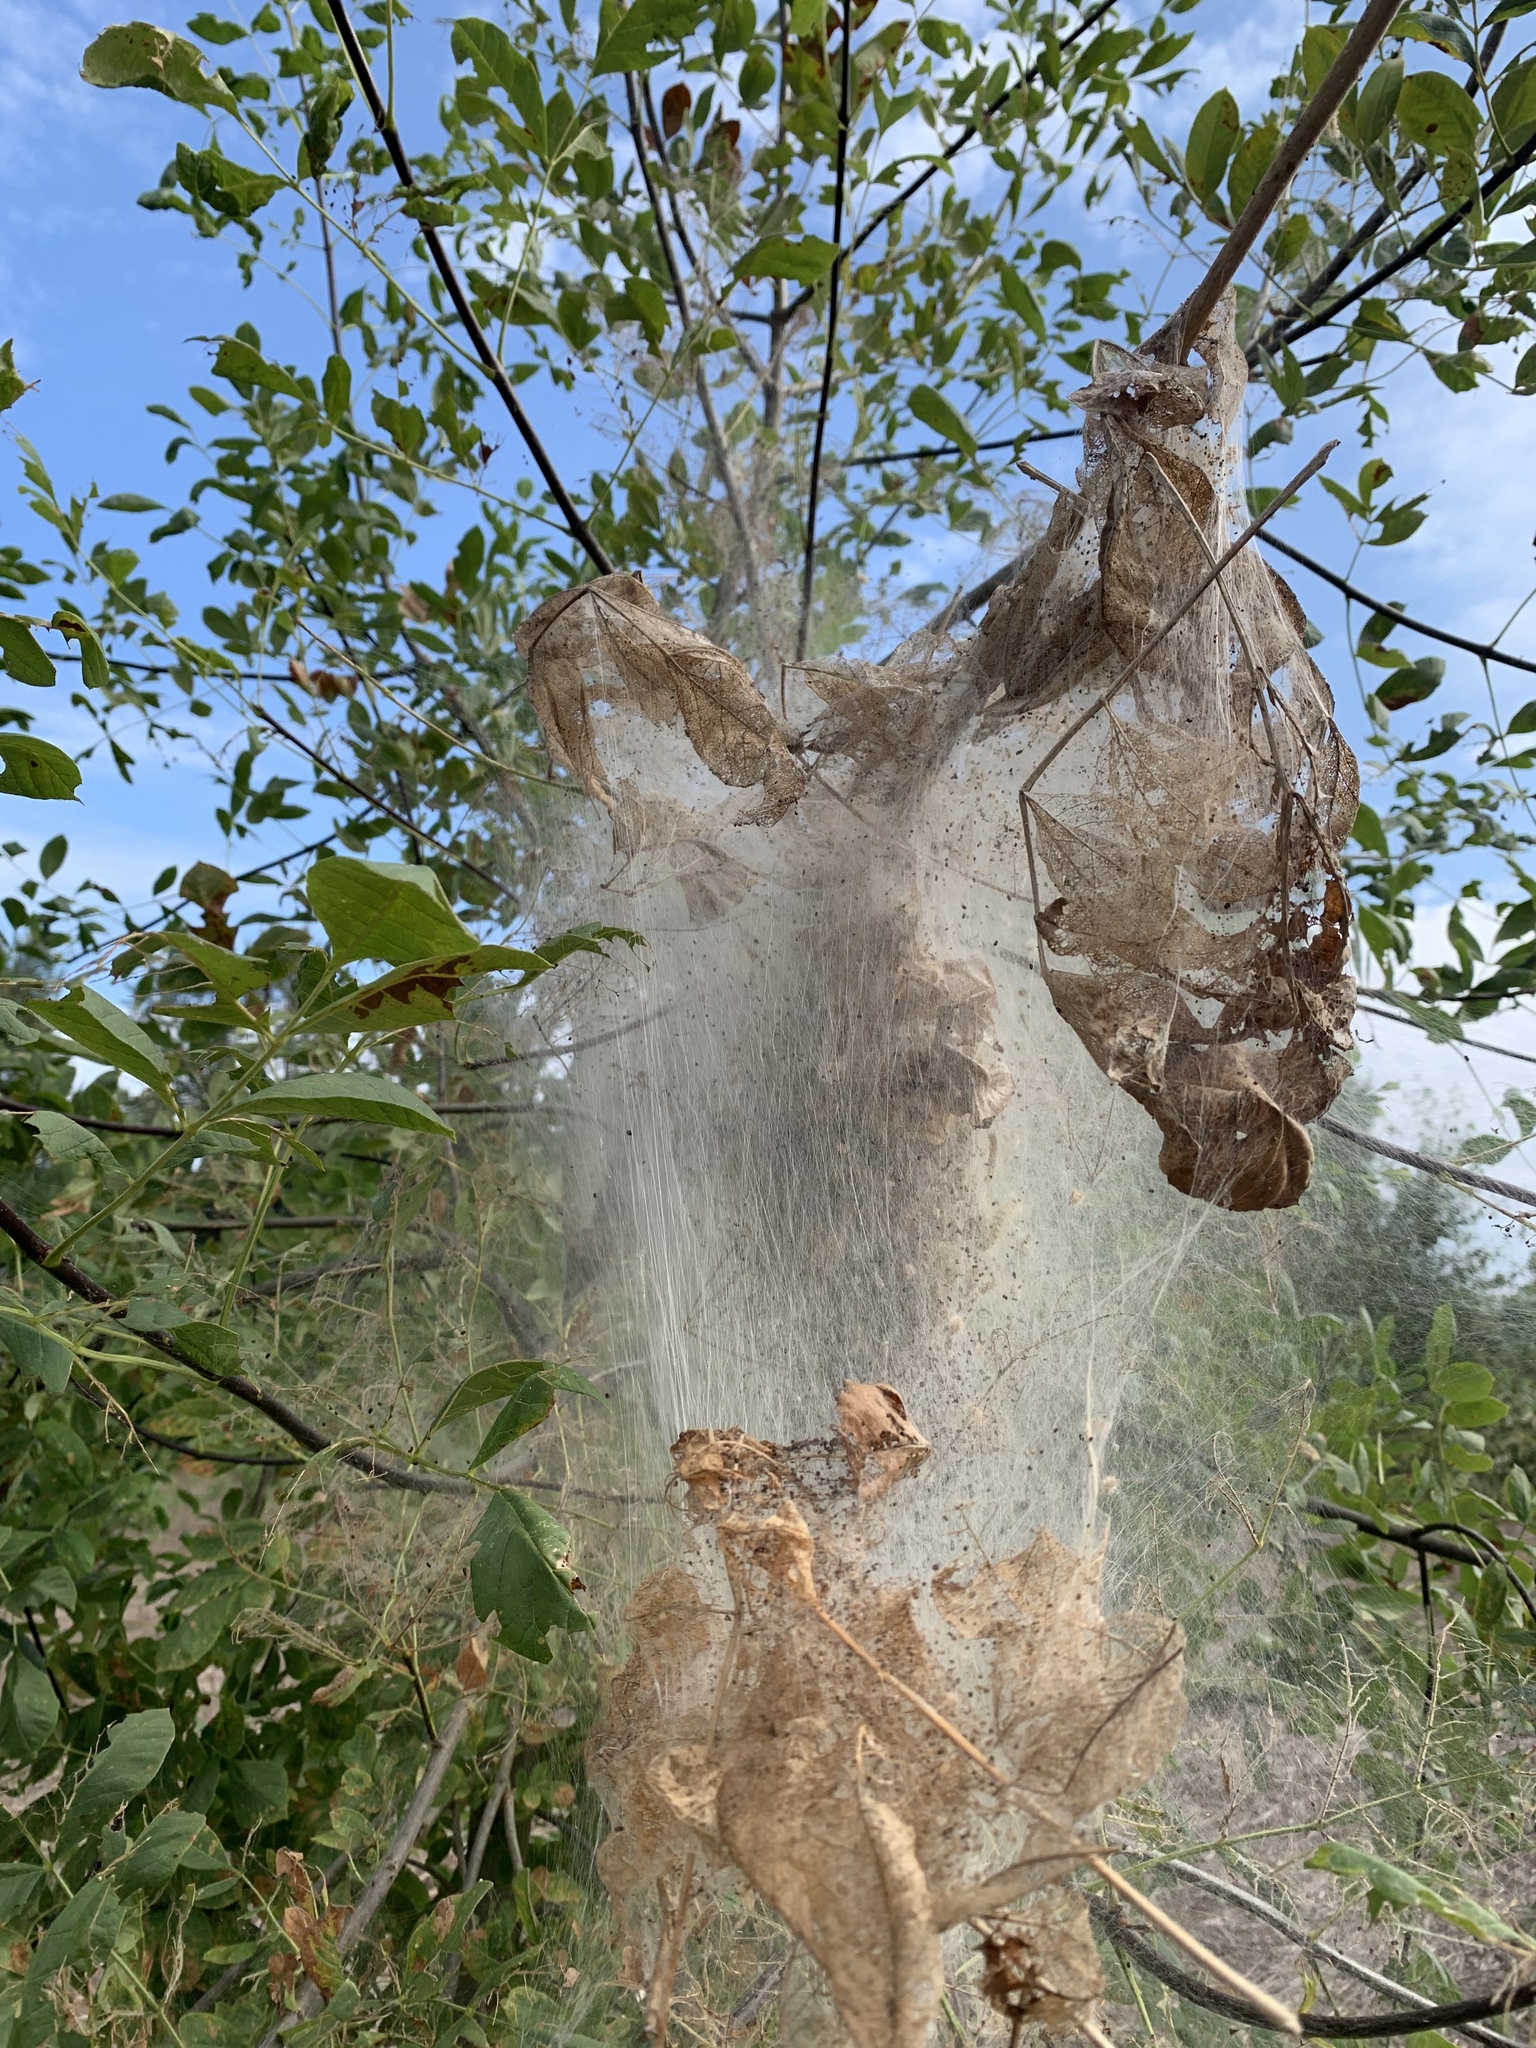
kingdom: Animalia
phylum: Arthropoda
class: Insecta
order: Lepidoptera
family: Erebidae
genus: Hyphantria
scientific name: Hyphantria cunea
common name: American white moth
